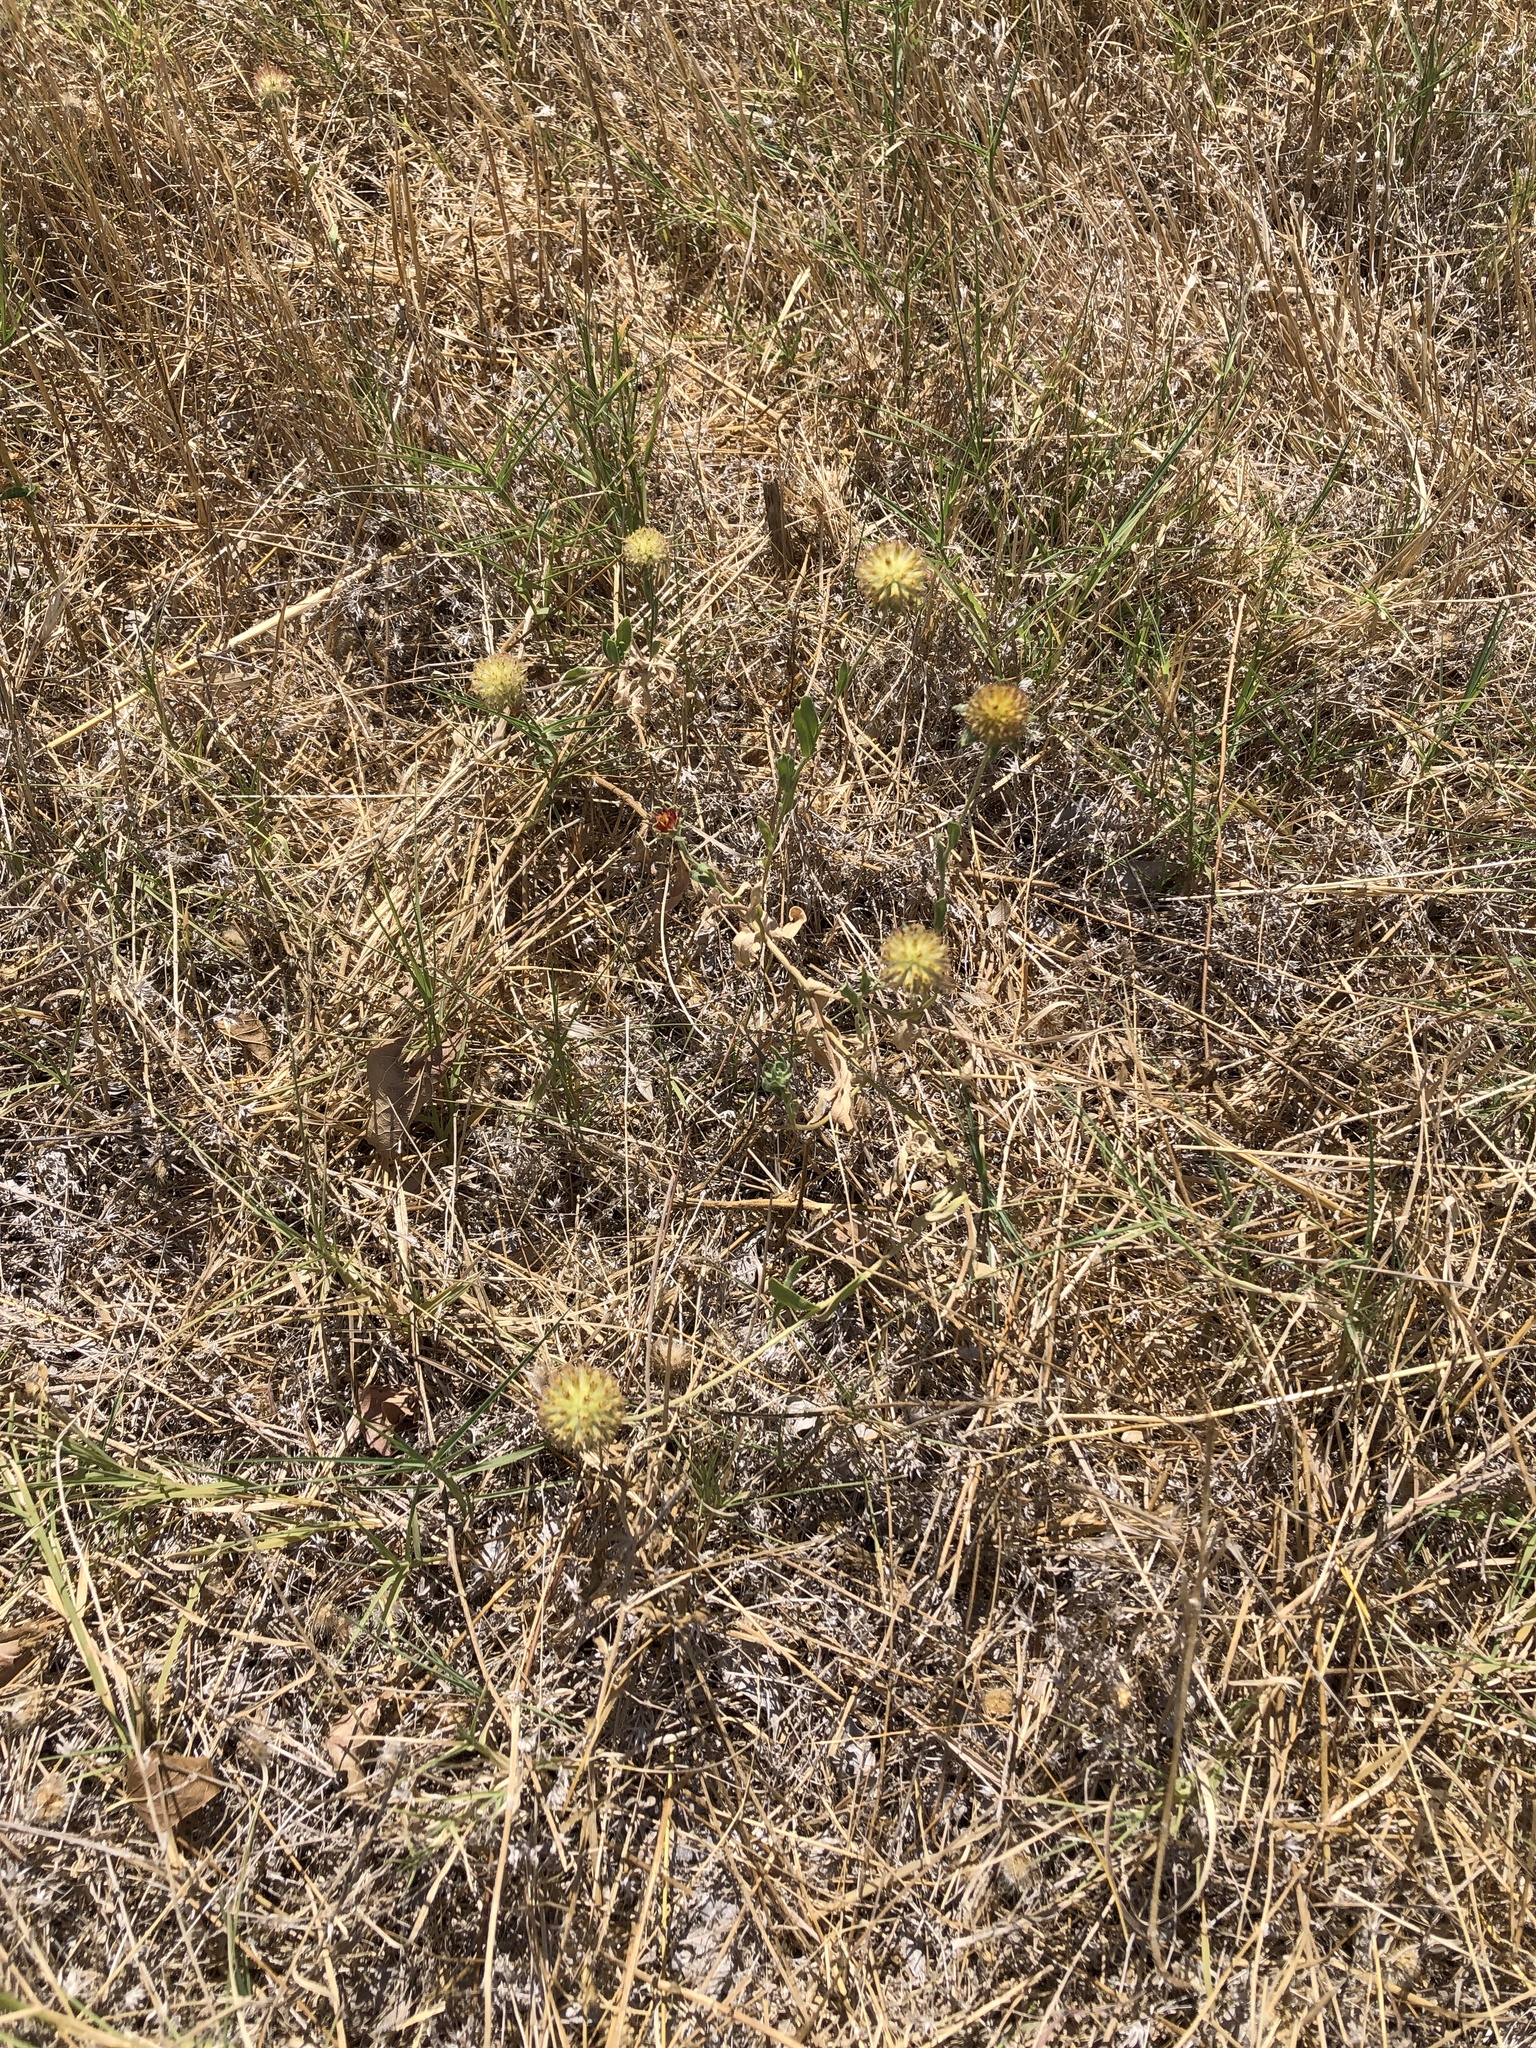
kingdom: Plantae
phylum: Tracheophyta
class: Magnoliopsida
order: Asterales
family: Asteraceae
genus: Gaillardia
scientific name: Gaillardia pulchella
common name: Firewheel
